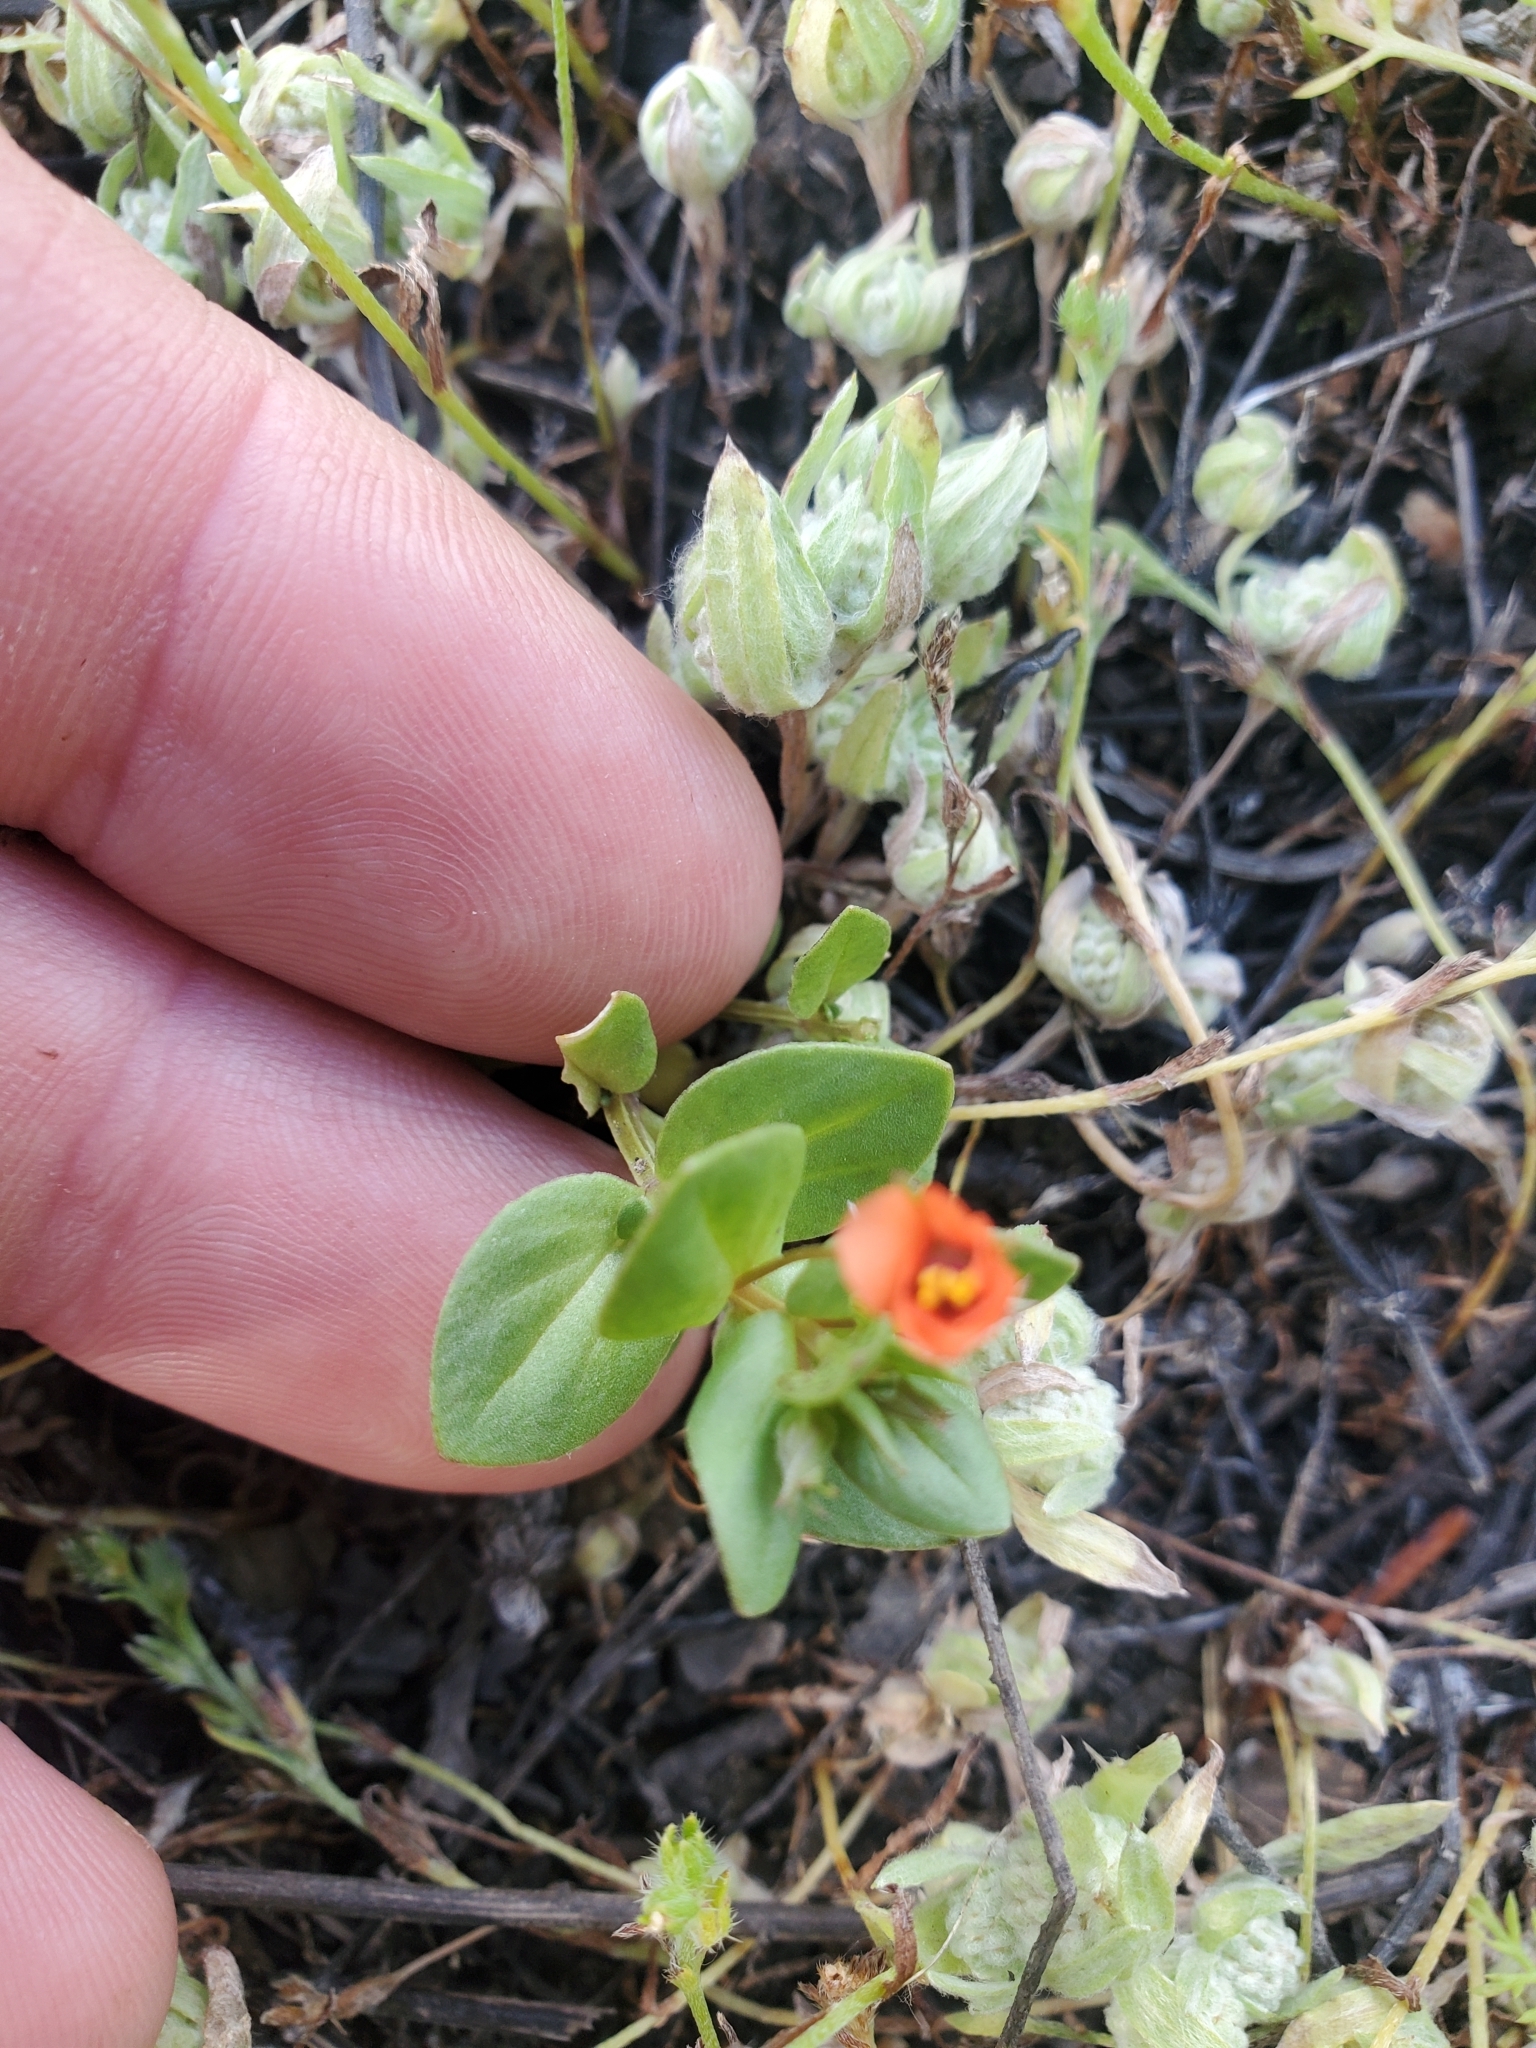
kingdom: Plantae
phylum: Tracheophyta
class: Magnoliopsida
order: Ericales
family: Primulaceae
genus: Lysimachia
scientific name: Lysimachia arvensis
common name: Scarlet pimpernel
